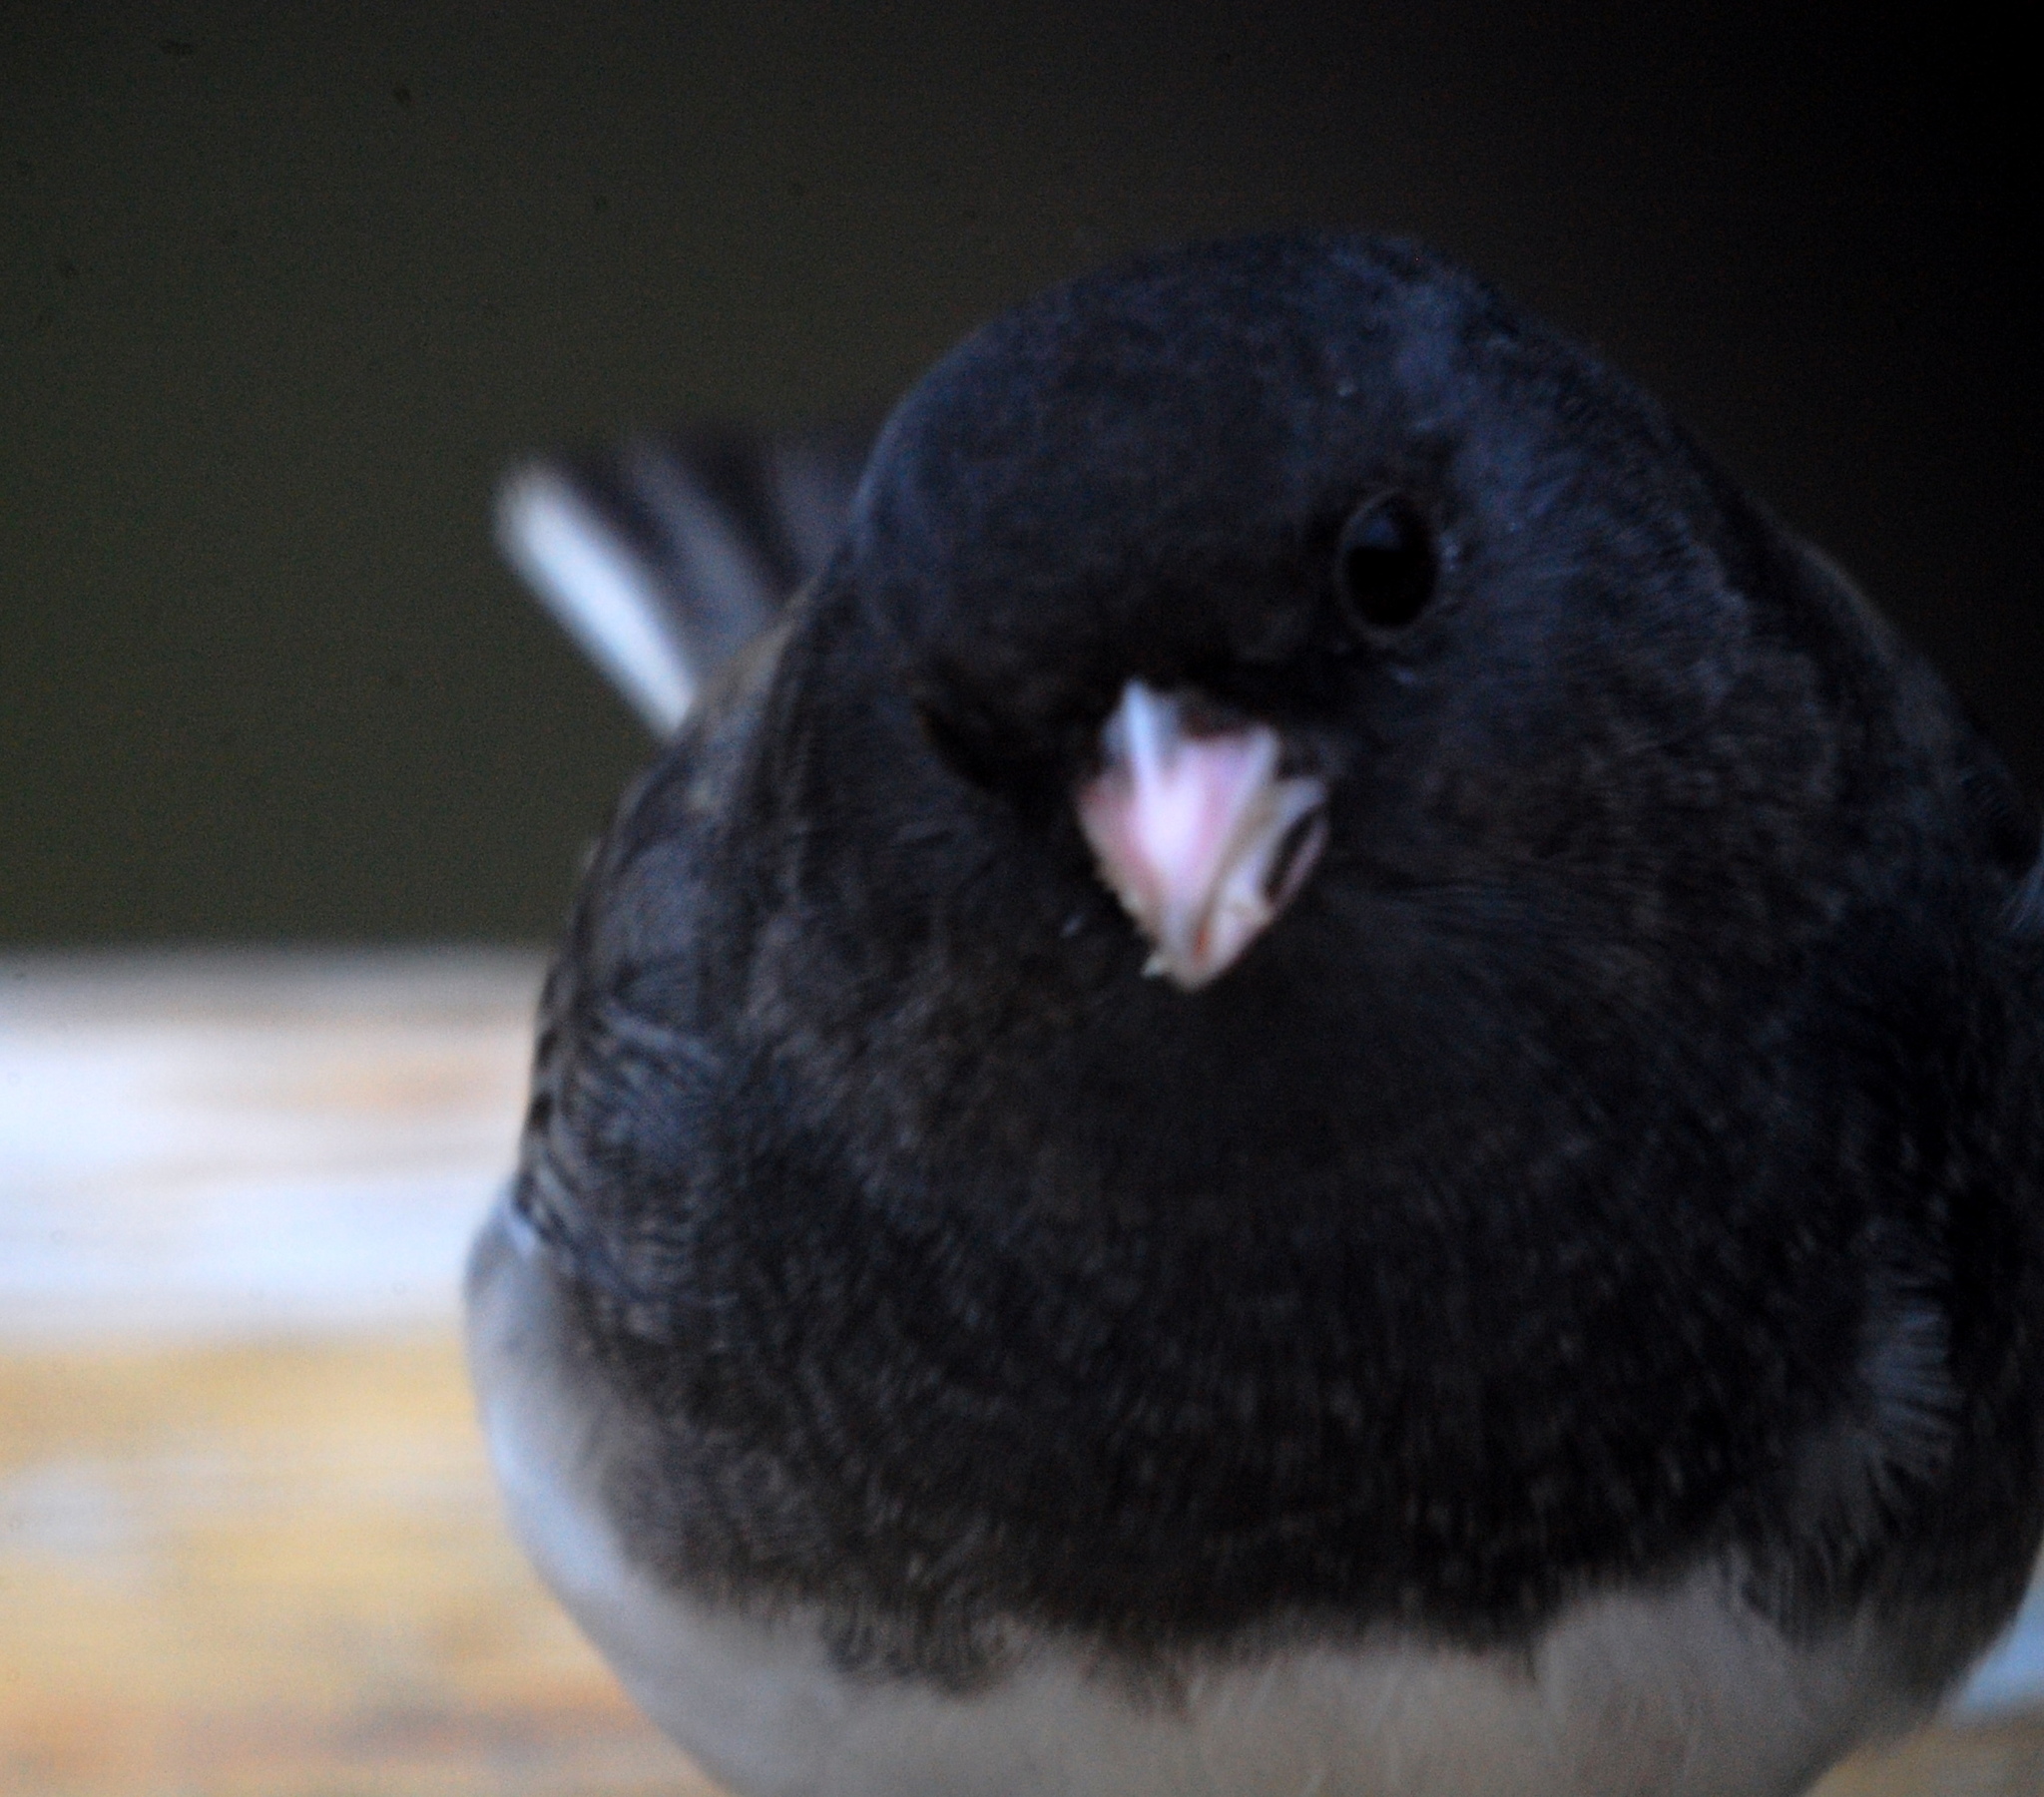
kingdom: Animalia
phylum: Chordata
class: Aves
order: Passeriformes
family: Passerellidae
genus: Junco
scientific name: Junco hyemalis
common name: Dark-eyed junco
